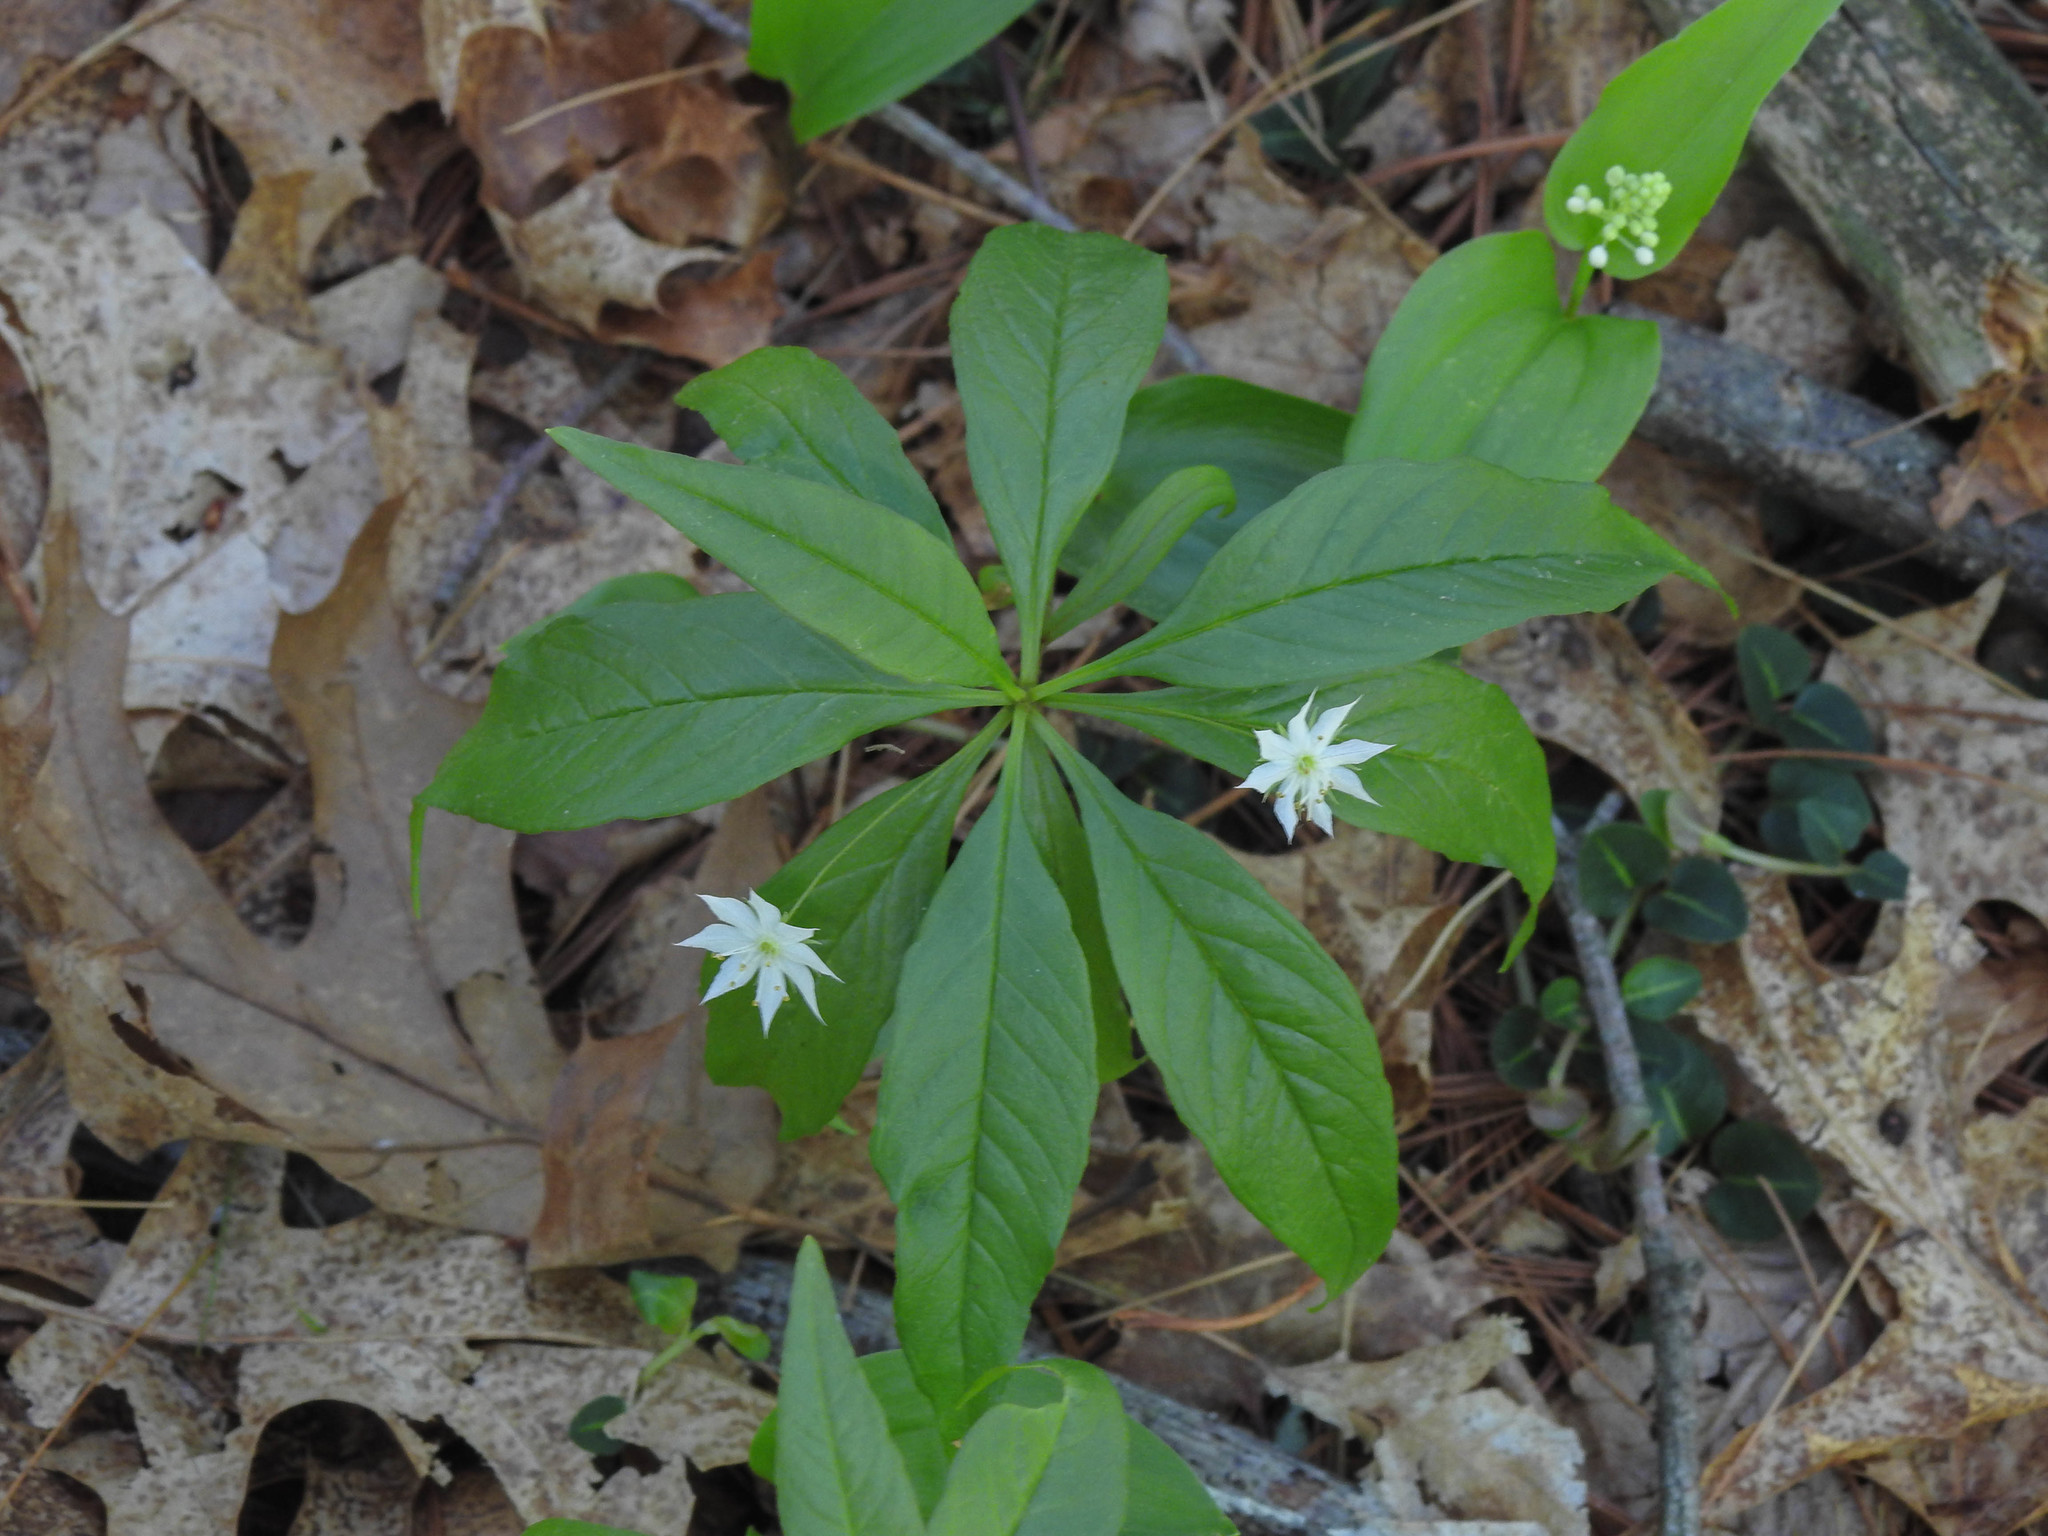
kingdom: Plantae
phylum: Tracheophyta
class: Magnoliopsida
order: Ericales
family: Primulaceae
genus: Lysimachia
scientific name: Lysimachia borealis
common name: American starflower
